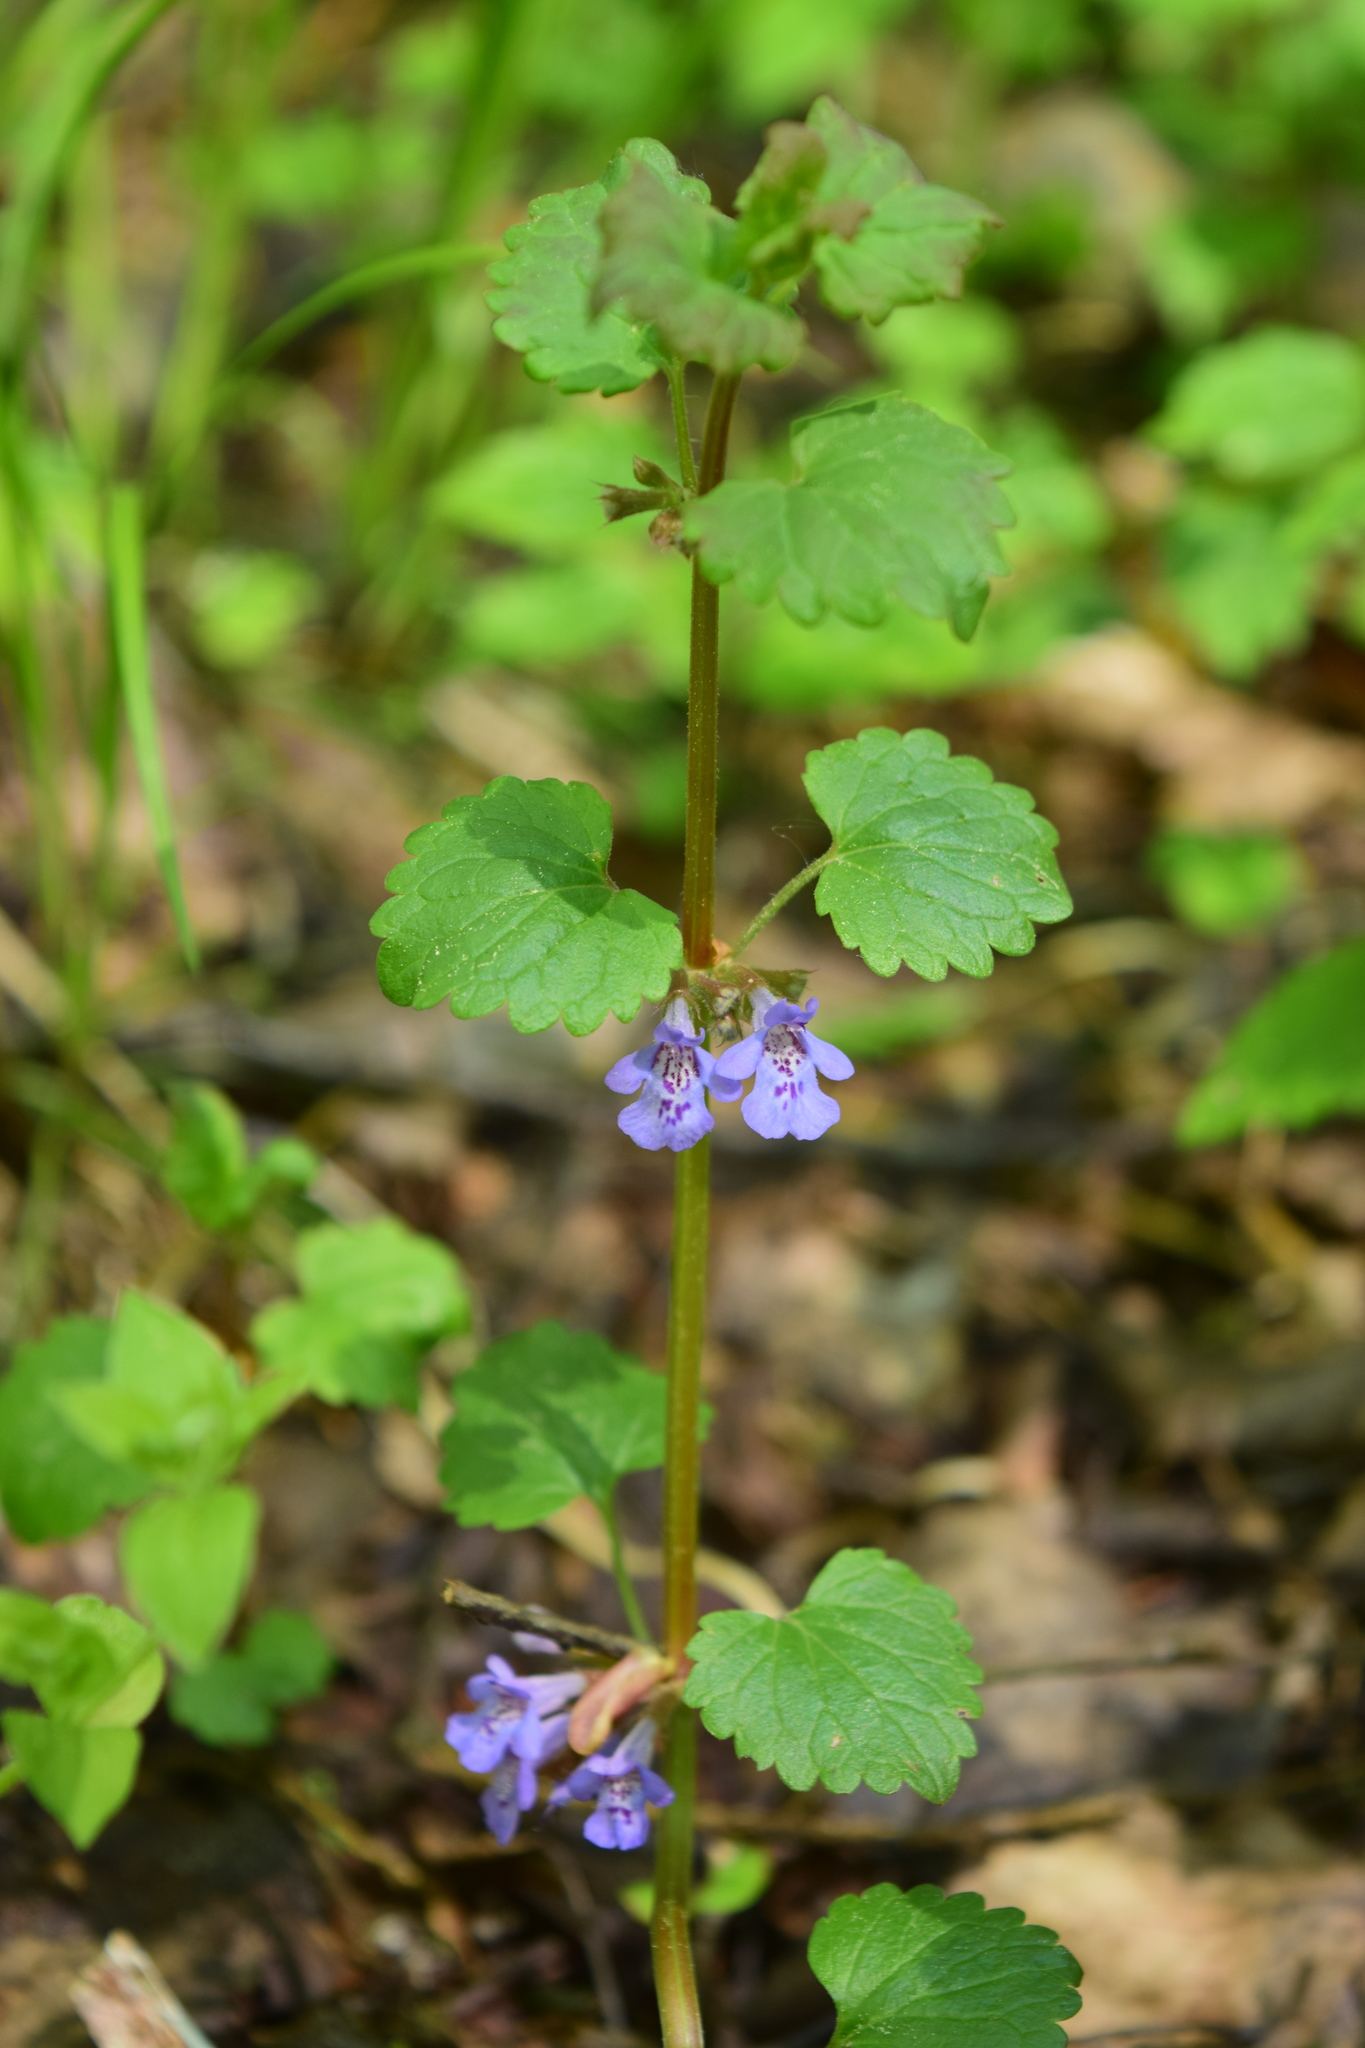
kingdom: Plantae
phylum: Tracheophyta
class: Magnoliopsida
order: Lamiales
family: Lamiaceae
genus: Glechoma
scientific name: Glechoma hederacea
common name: Ground ivy
